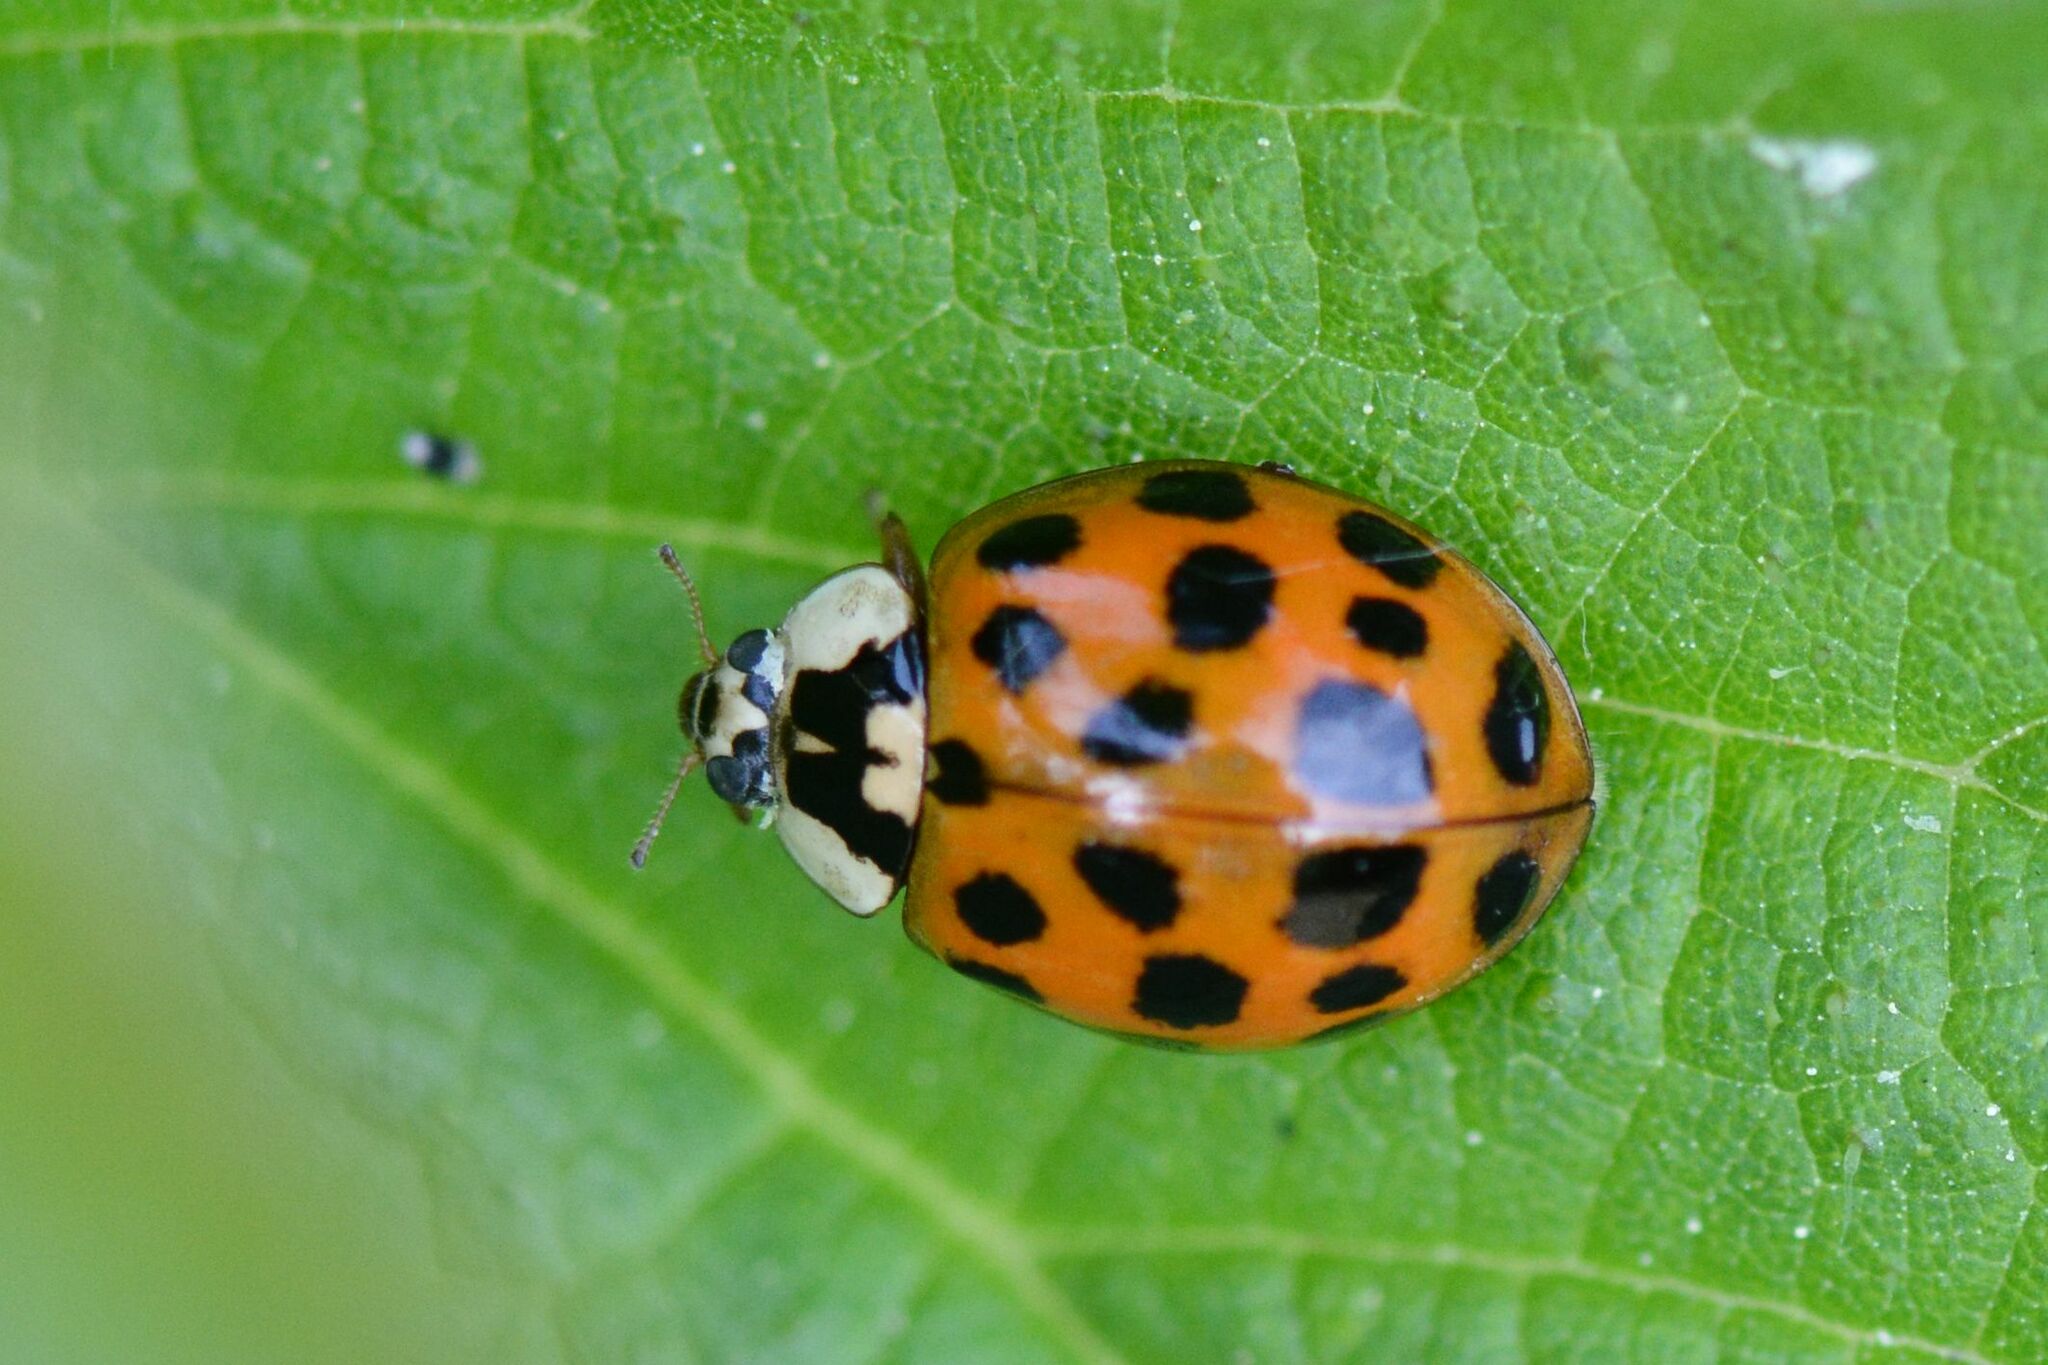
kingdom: Animalia
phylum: Arthropoda
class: Insecta
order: Coleoptera
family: Coccinellidae
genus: Harmonia
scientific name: Harmonia axyridis
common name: Harlequin ladybird
